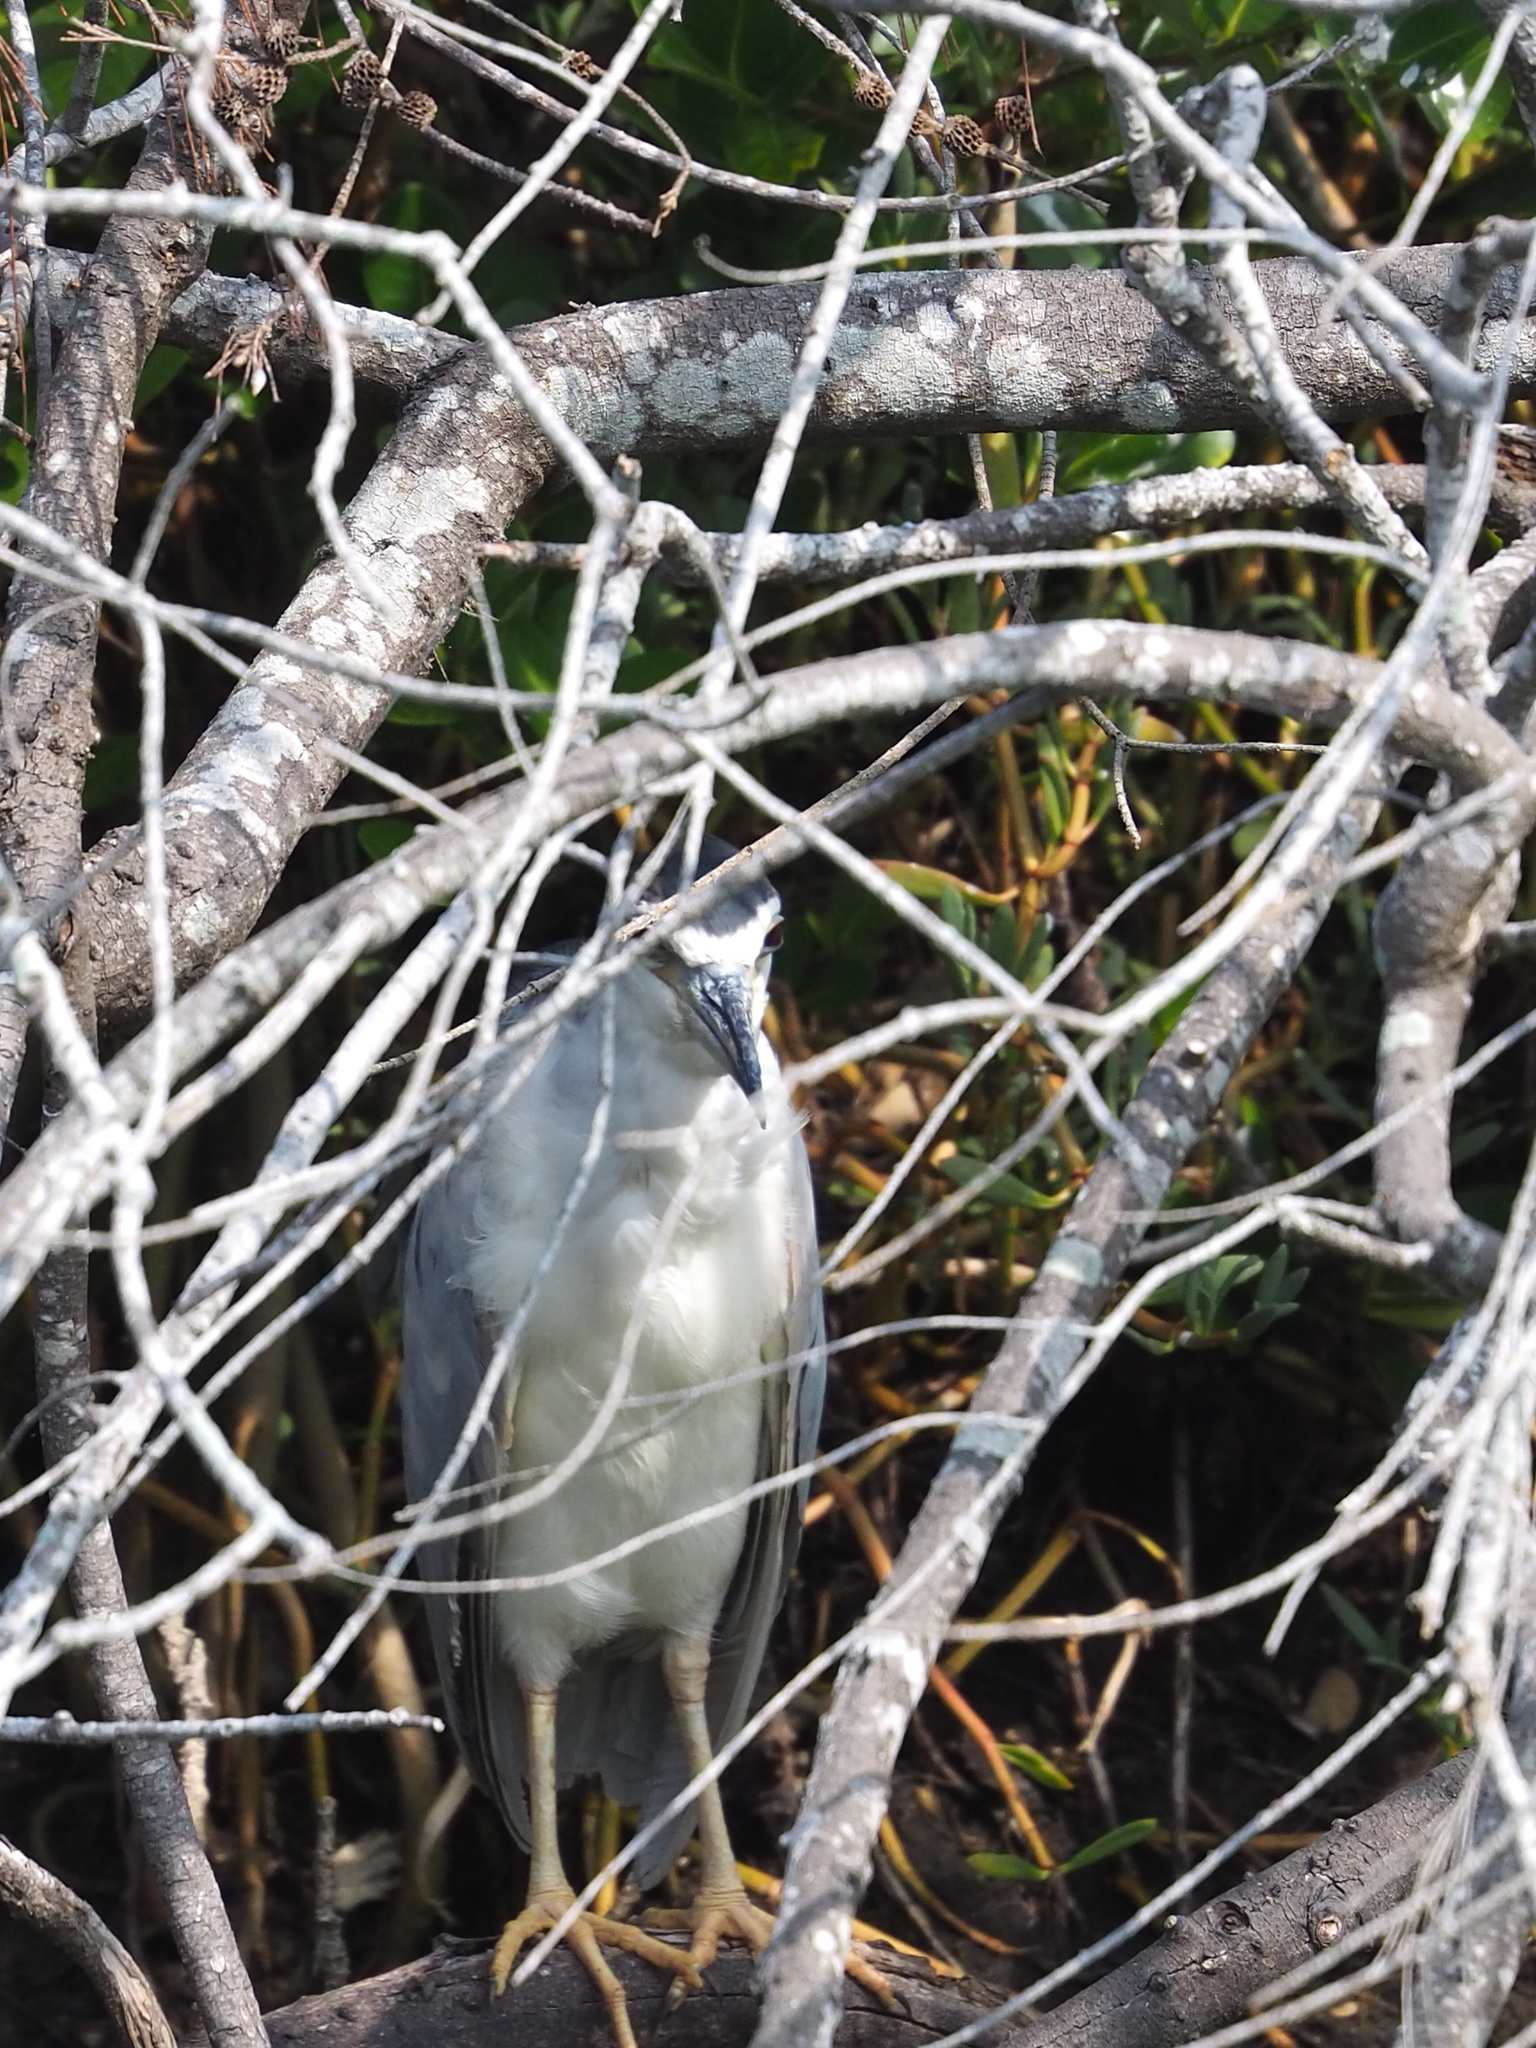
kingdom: Animalia
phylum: Chordata
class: Aves
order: Pelecaniformes
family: Ardeidae
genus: Nycticorax
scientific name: Nycticorax nycticorax
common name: Black-crowned night heron
